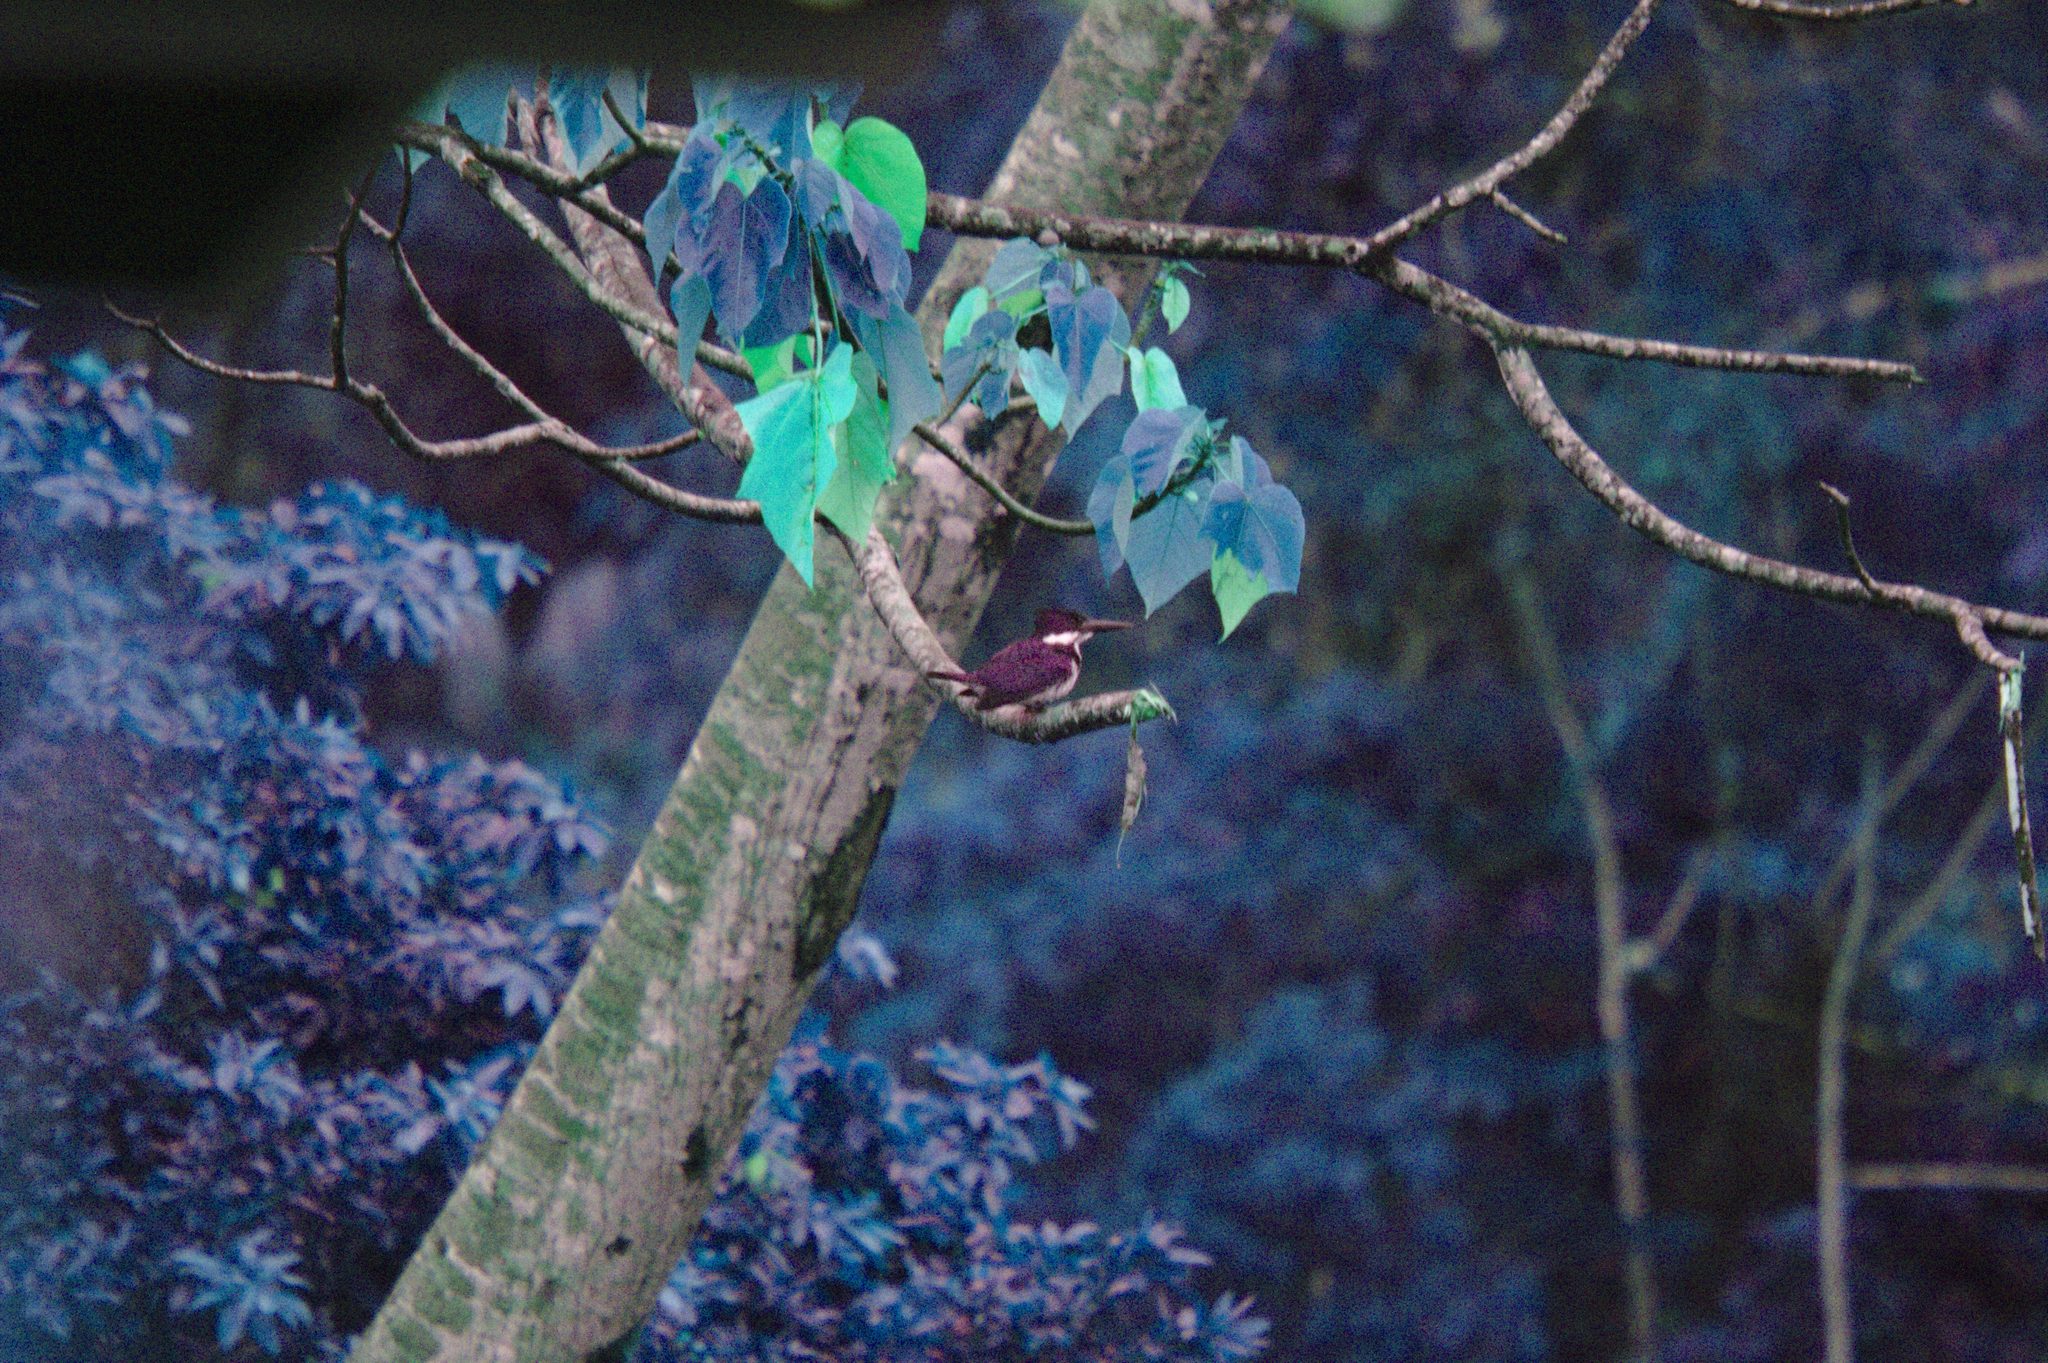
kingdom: Animalia
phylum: Chordata
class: Aves
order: Coraciiformes
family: Alcedinidae
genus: Chloroceryle
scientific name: Chloroceryle amazona
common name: Amazon kingfisher
